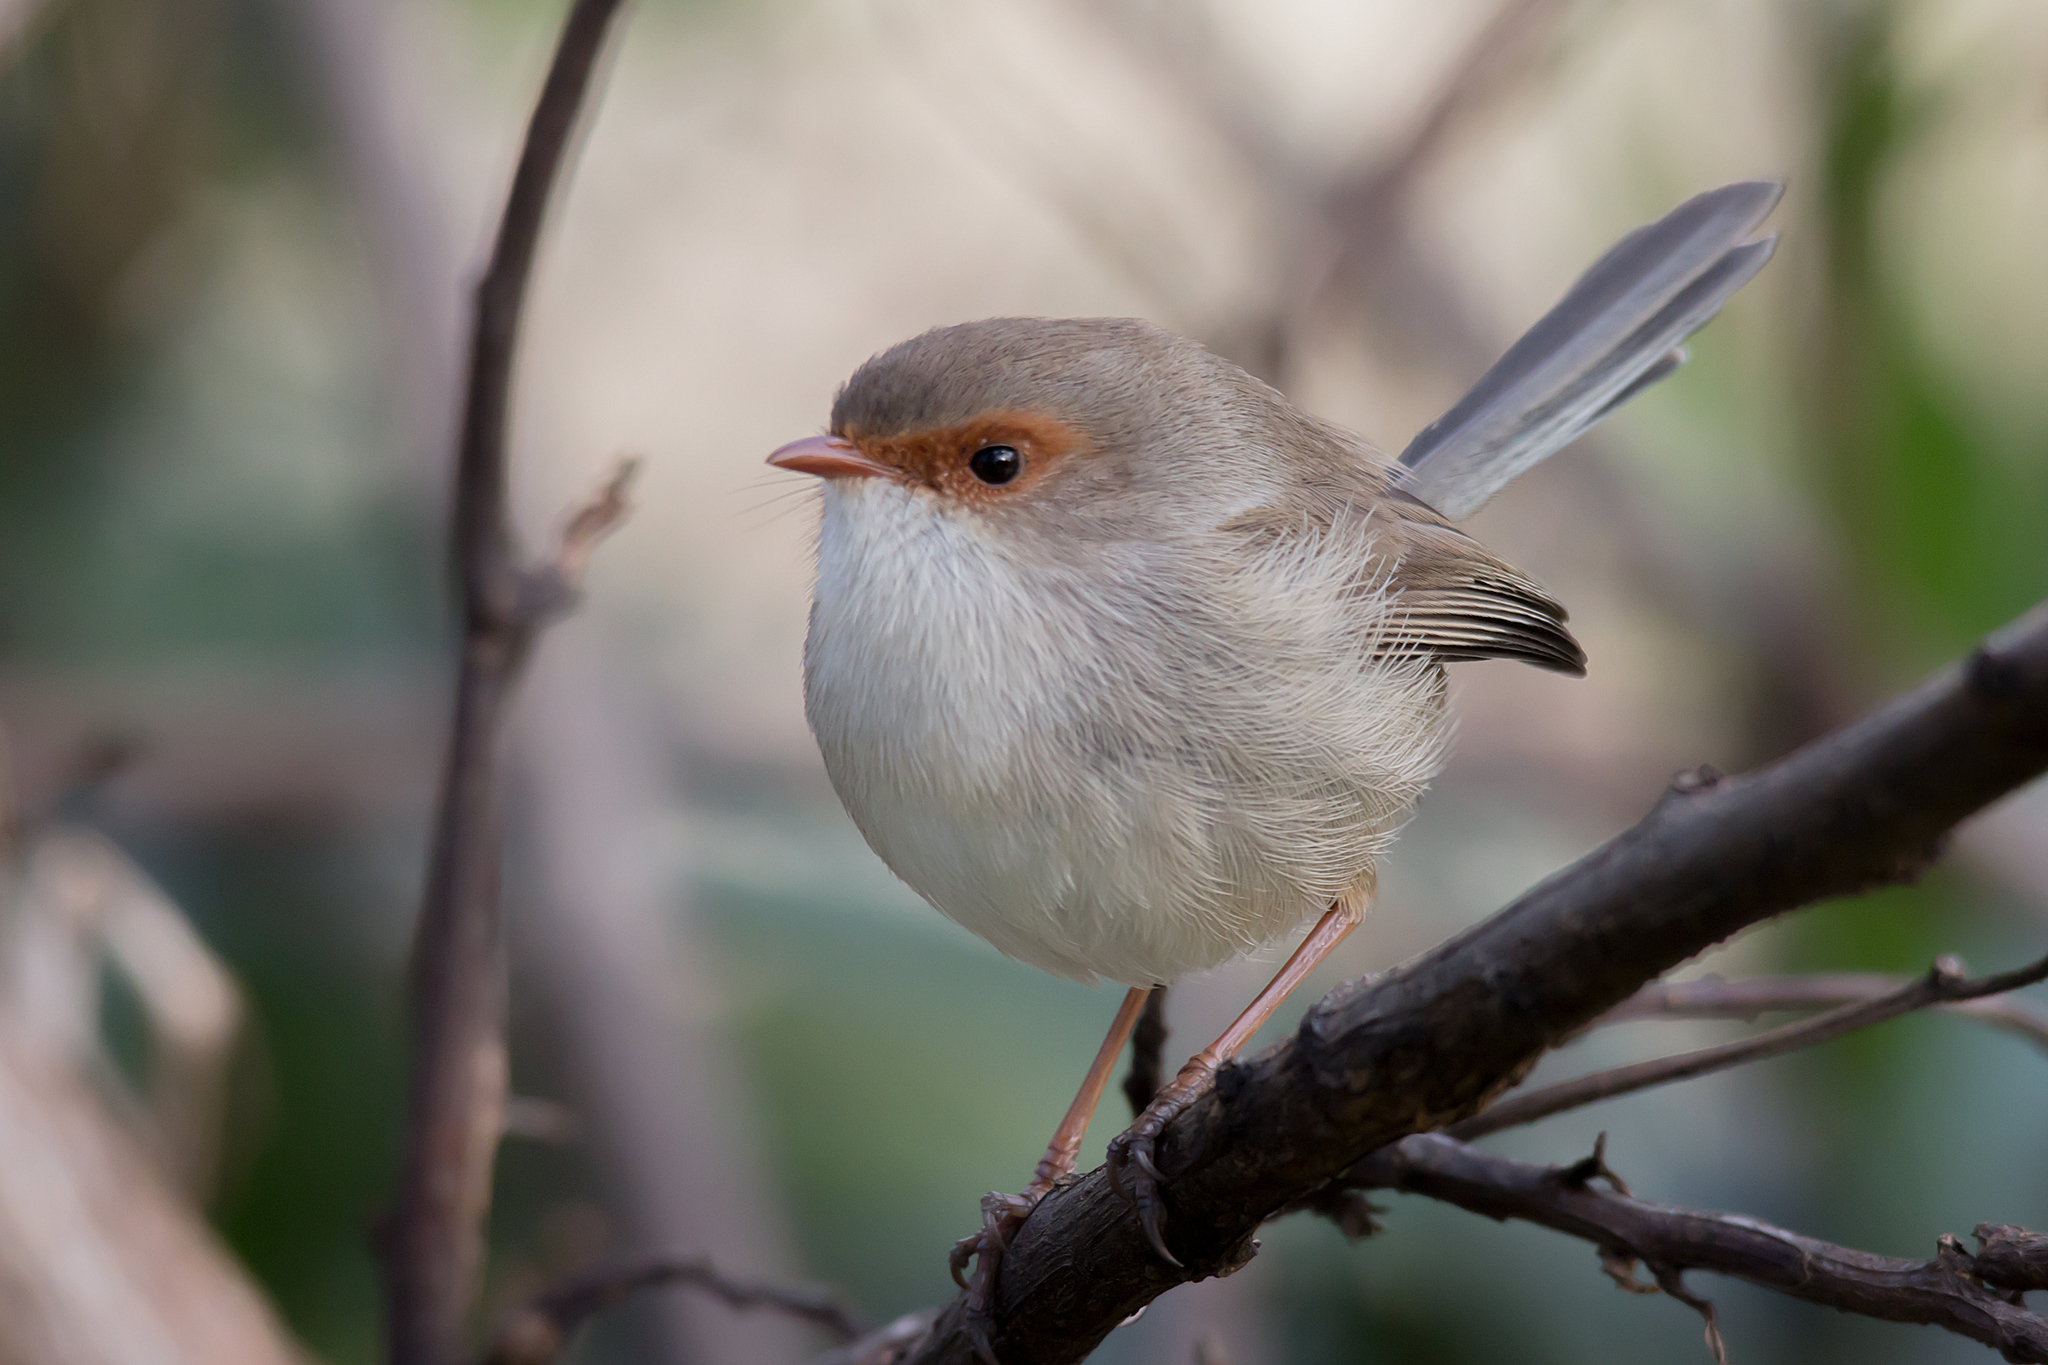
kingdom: Animalia
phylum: Chordata
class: Aves
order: Passeriformes
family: Maluridae
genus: Malurus
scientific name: Malurus cyaneus
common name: Superb fairywren
